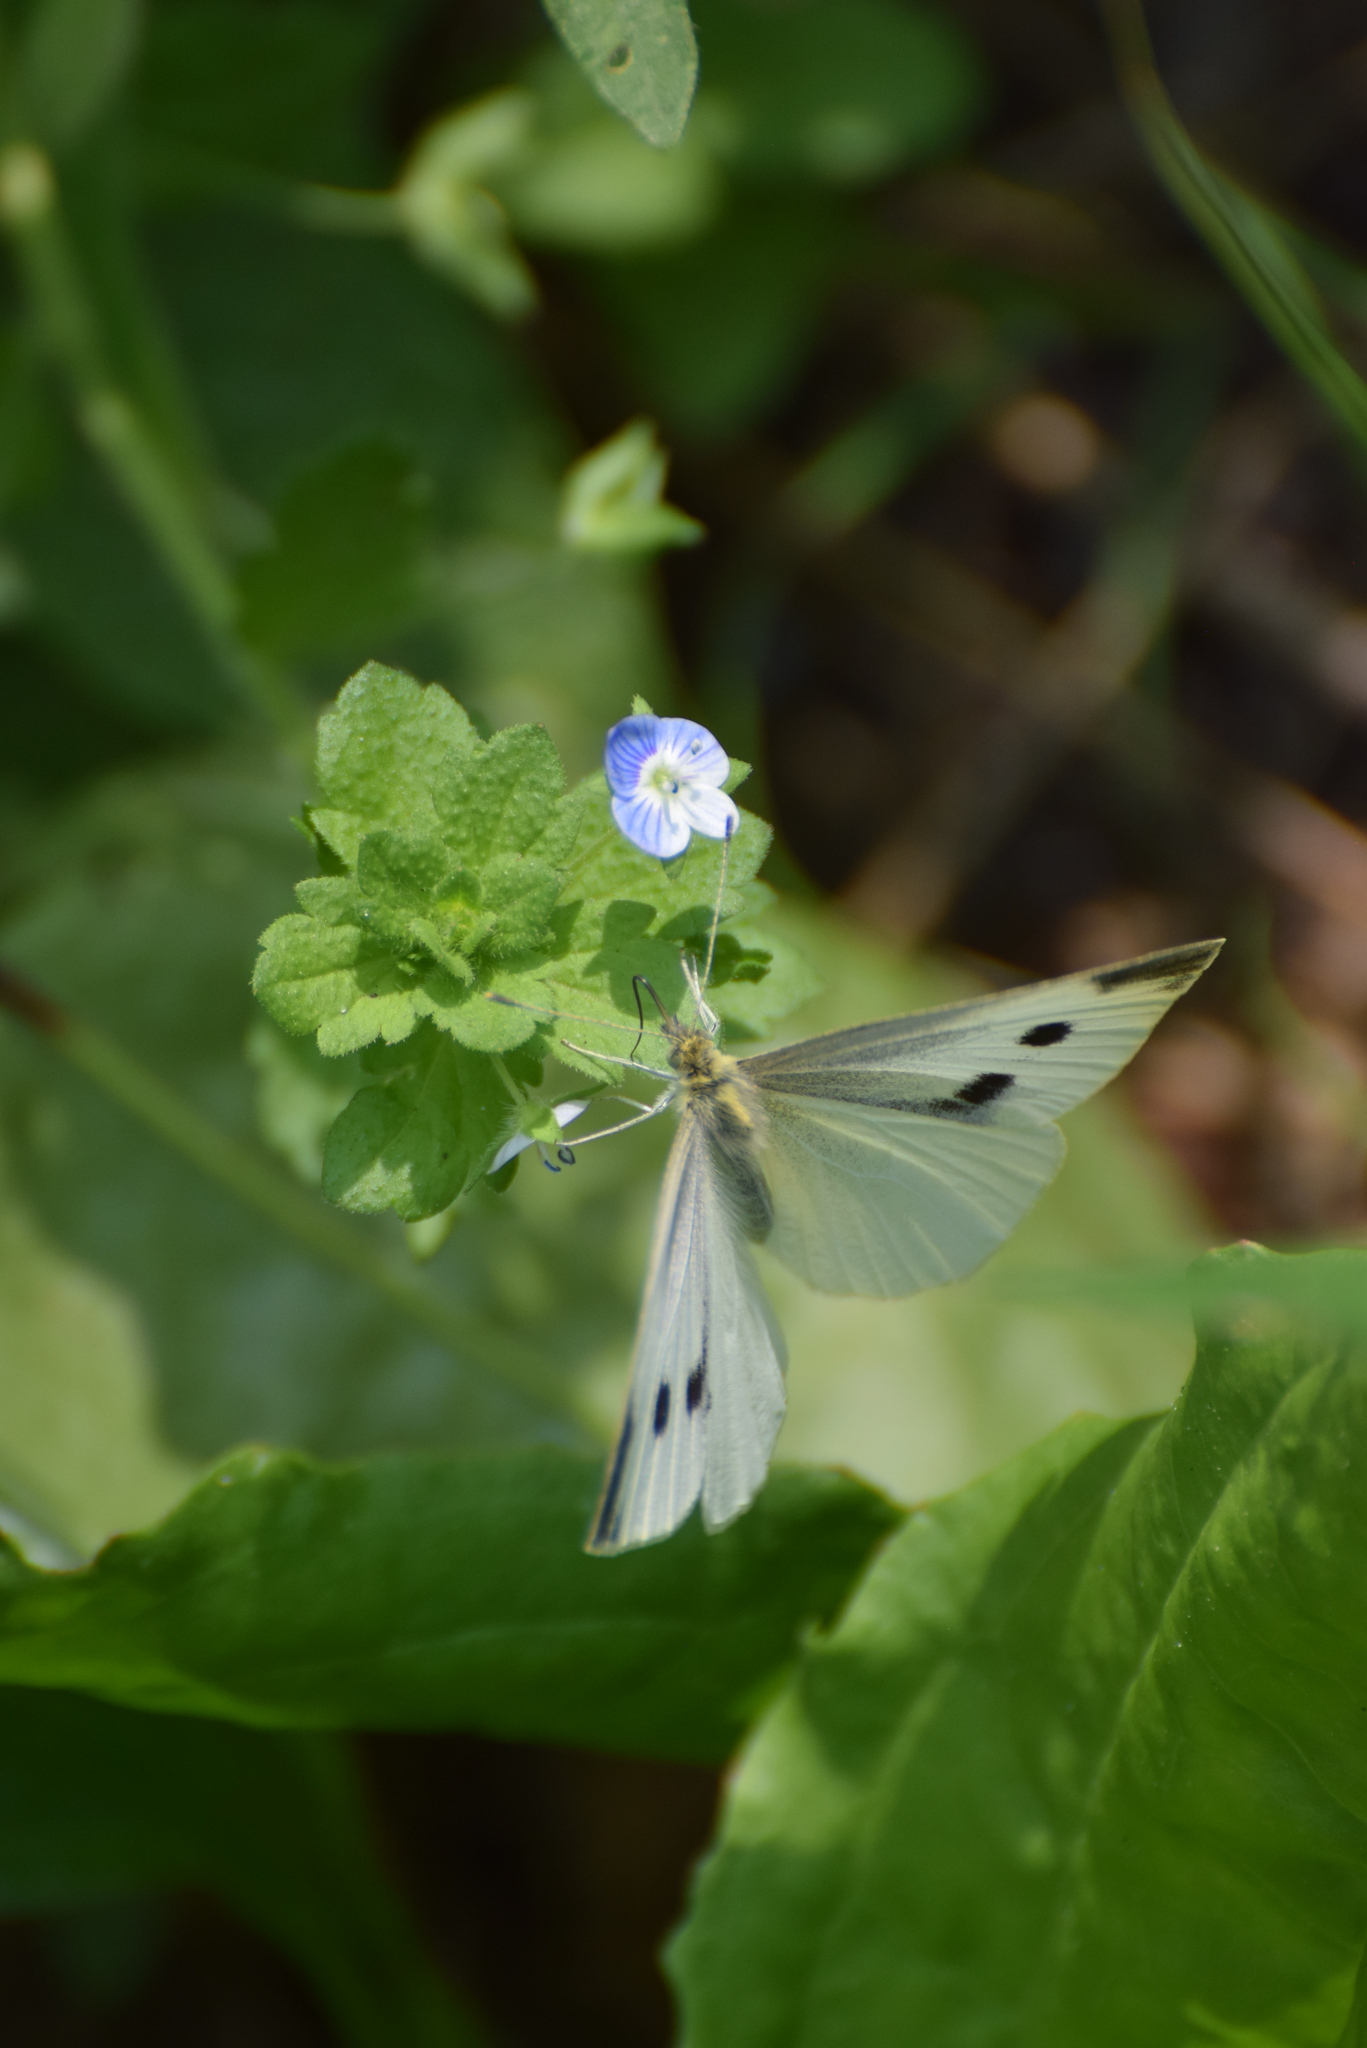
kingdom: Animalia
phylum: Arthropoda
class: Insecta
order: Lepidoptera
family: Pieridae
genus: Pieris
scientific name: Pieris rapae
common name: Small white
